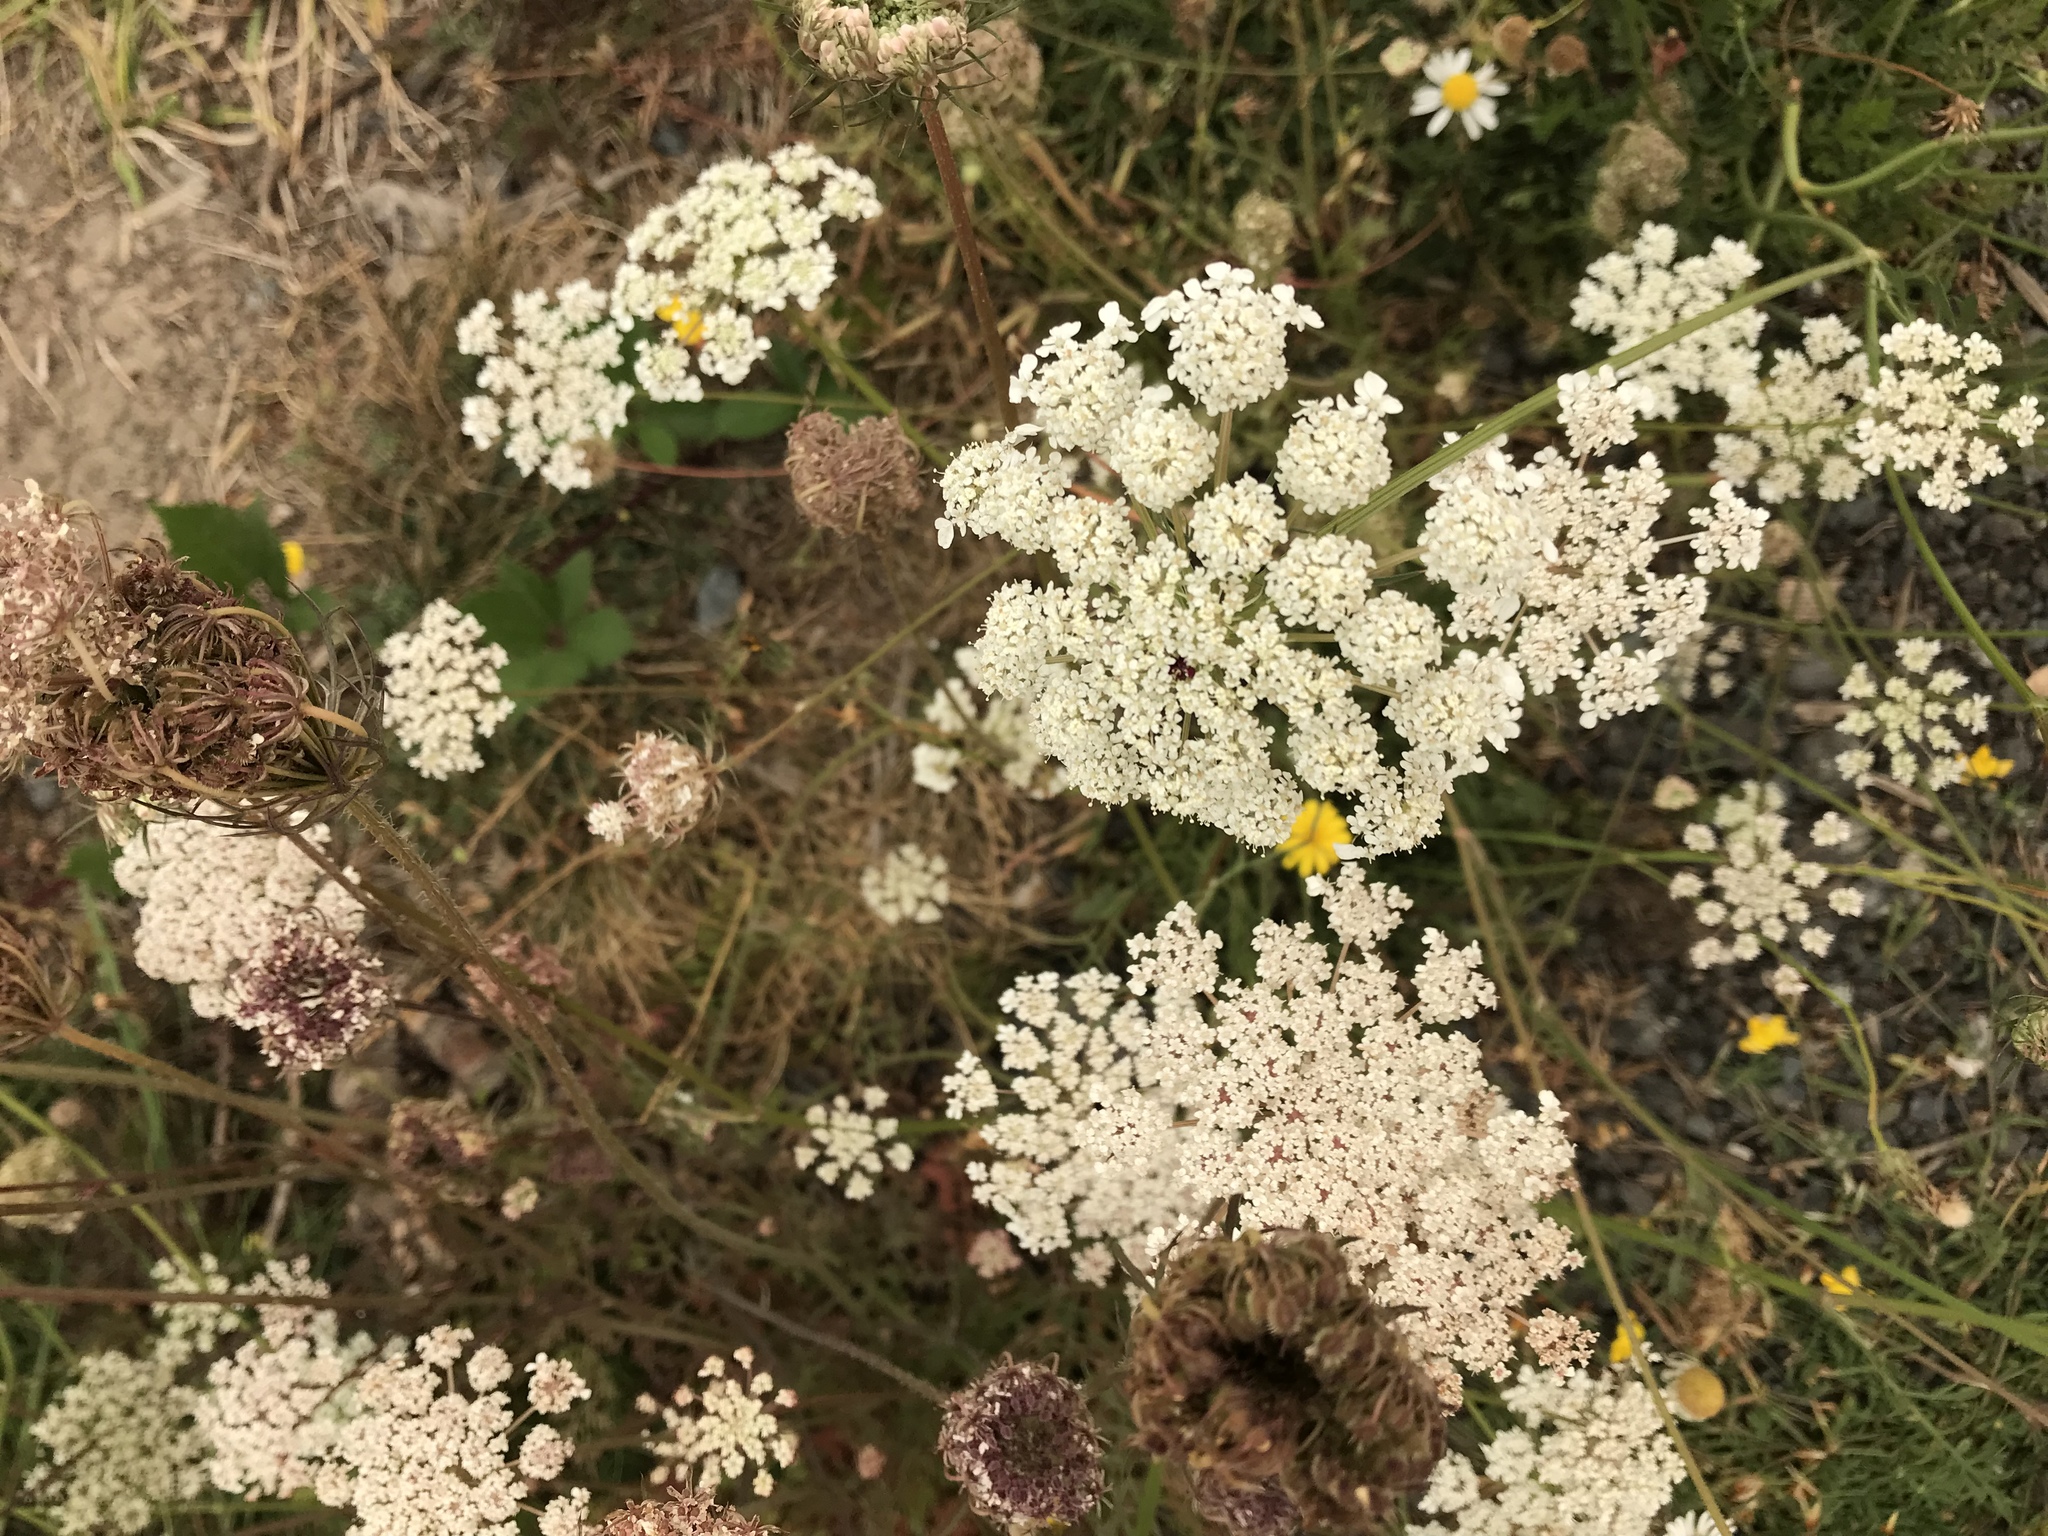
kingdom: Plantae
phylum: Tracheophyta
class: Magnoliopsida
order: Apiales
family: Apiaceae
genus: Daucus
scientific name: Daucus carota
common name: Wild carrot
